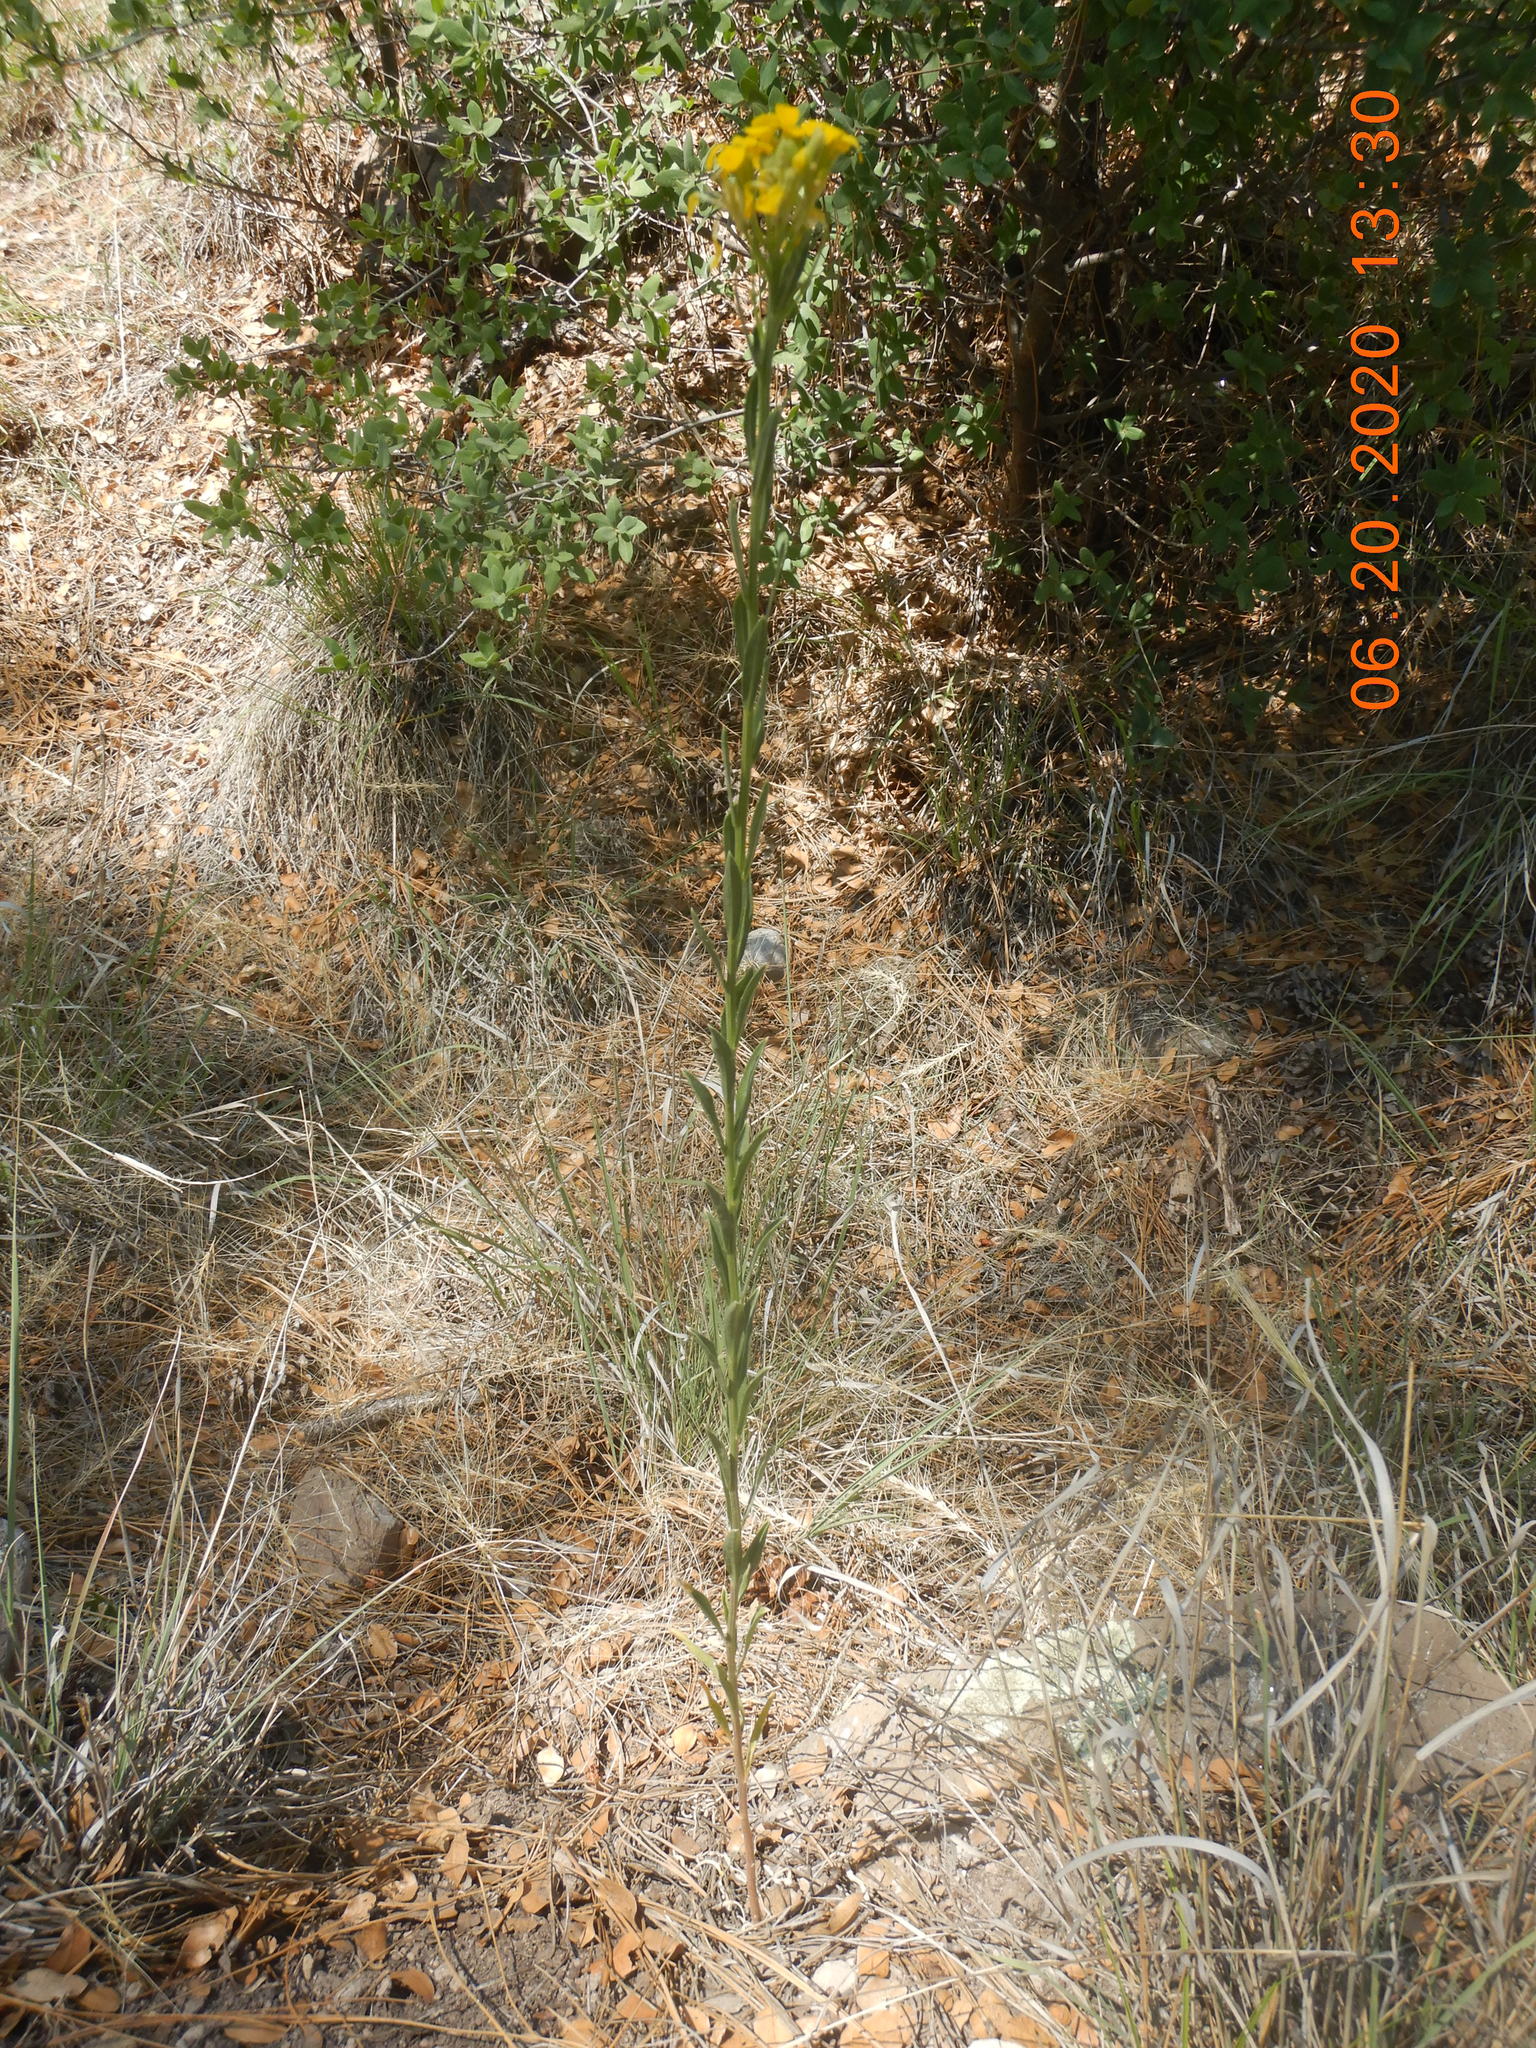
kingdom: Plantae
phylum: Tracheophyta
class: Magnoliopsida
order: Brassicales
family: Brassicaceae
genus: Erysimum
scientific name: Erysimum capitatum
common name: Western wallflower
